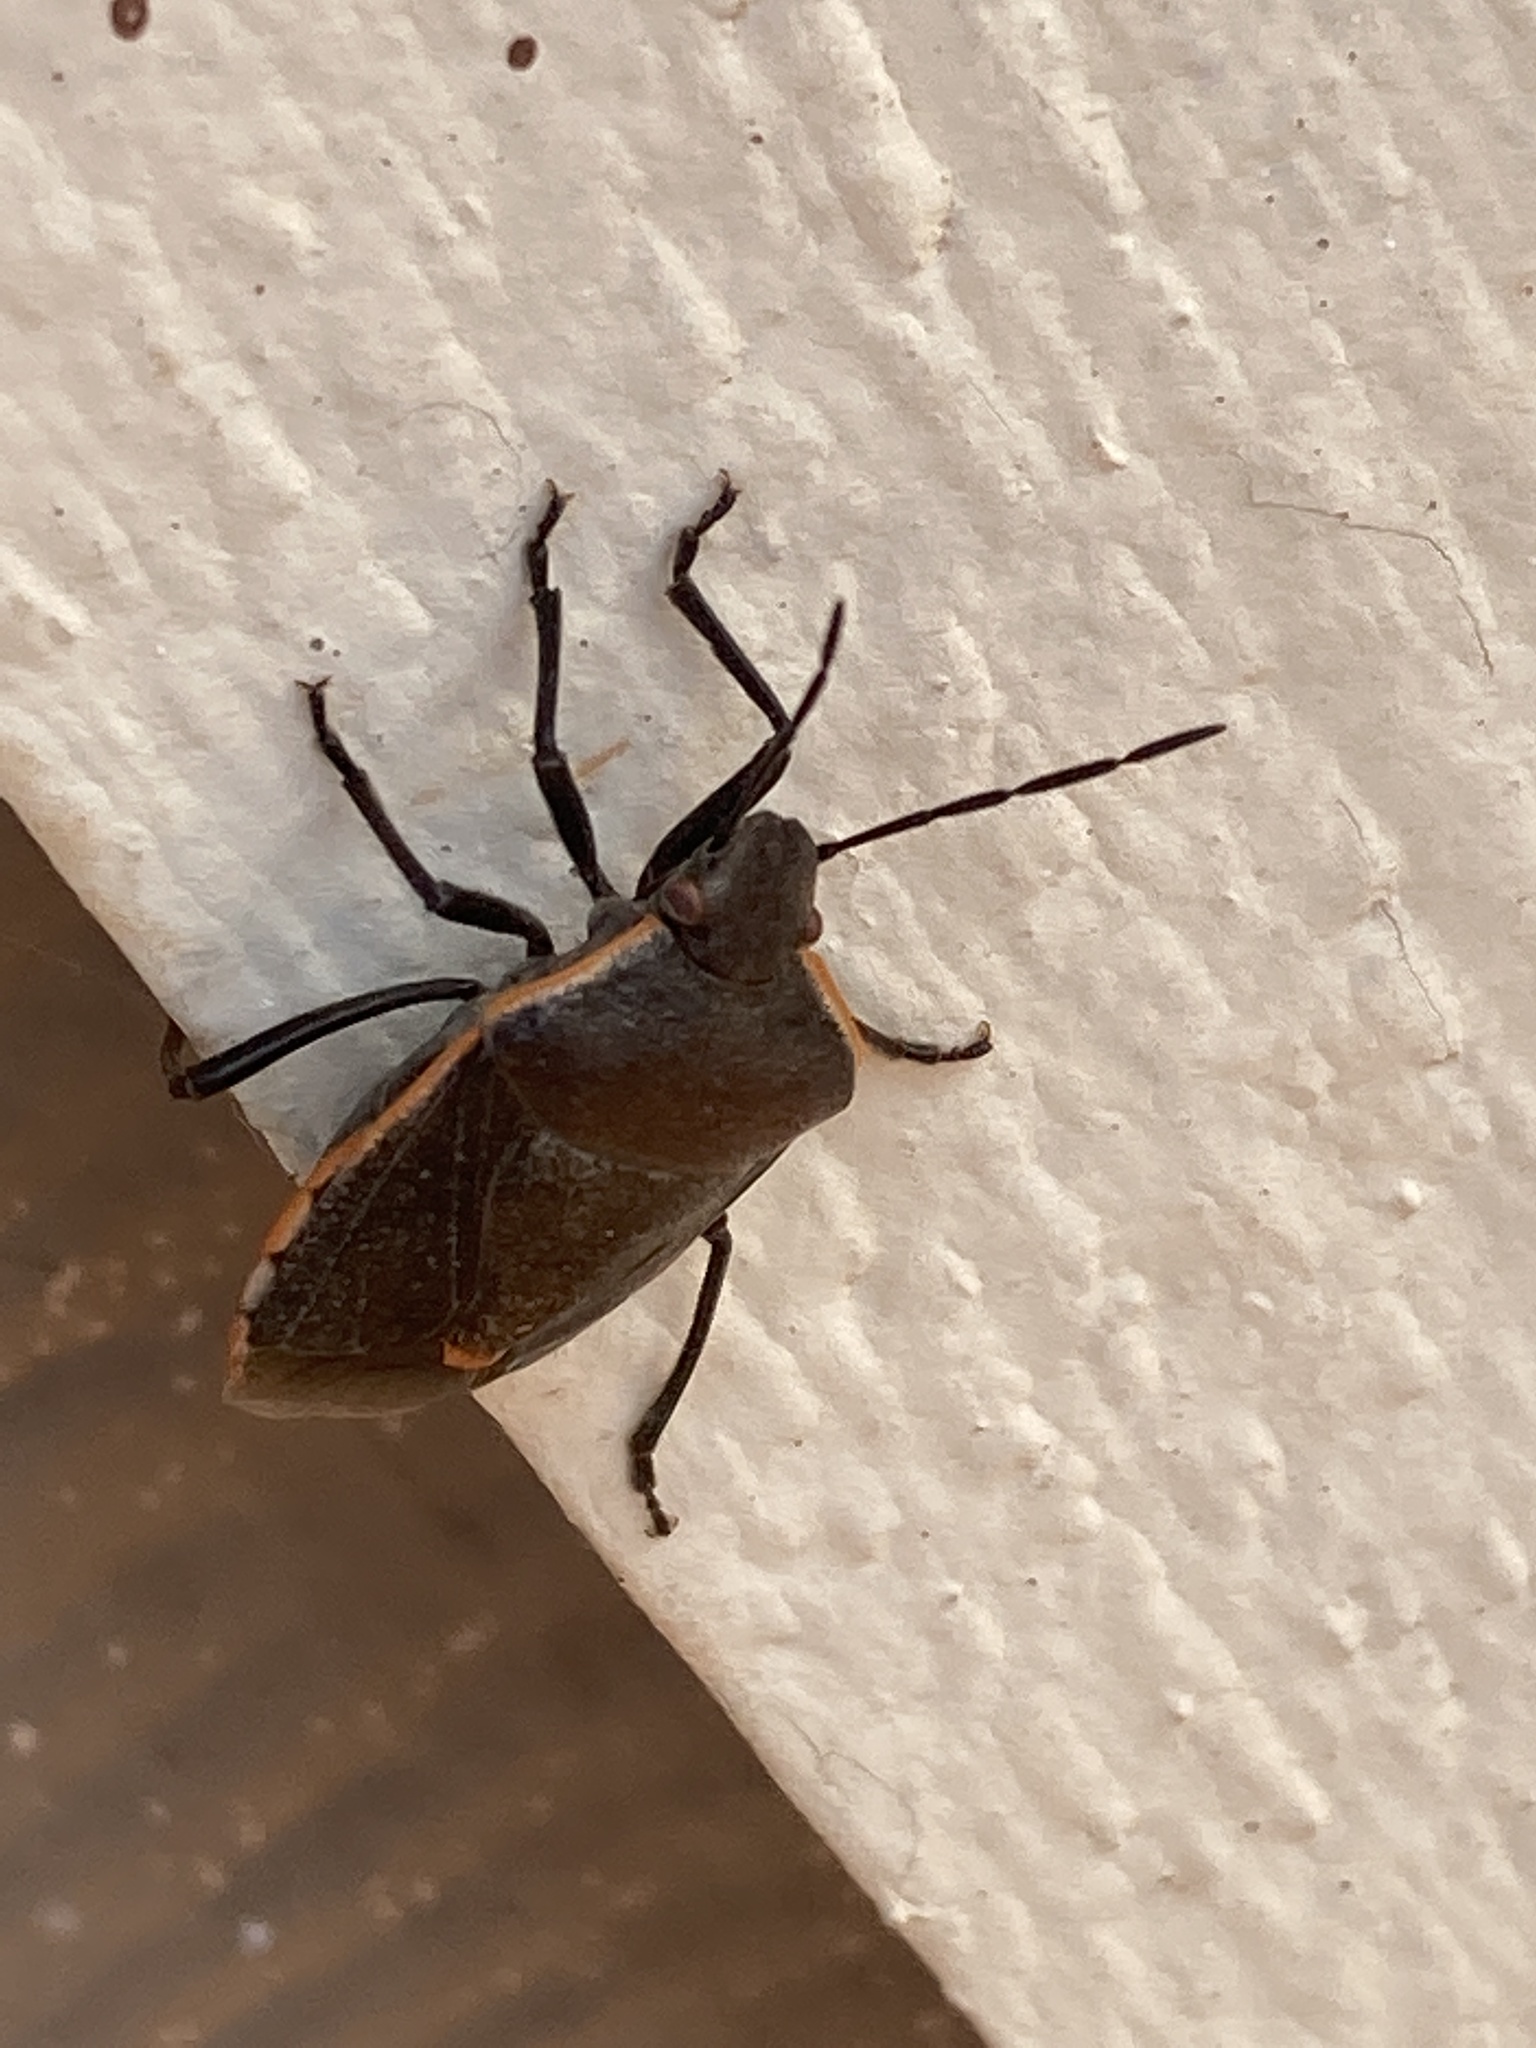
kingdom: Animalia
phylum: Arthropoda
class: Insecta
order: Hemiptera
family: Pentatomidae
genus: Chlorochroa
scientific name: Chlorochroa ligata
